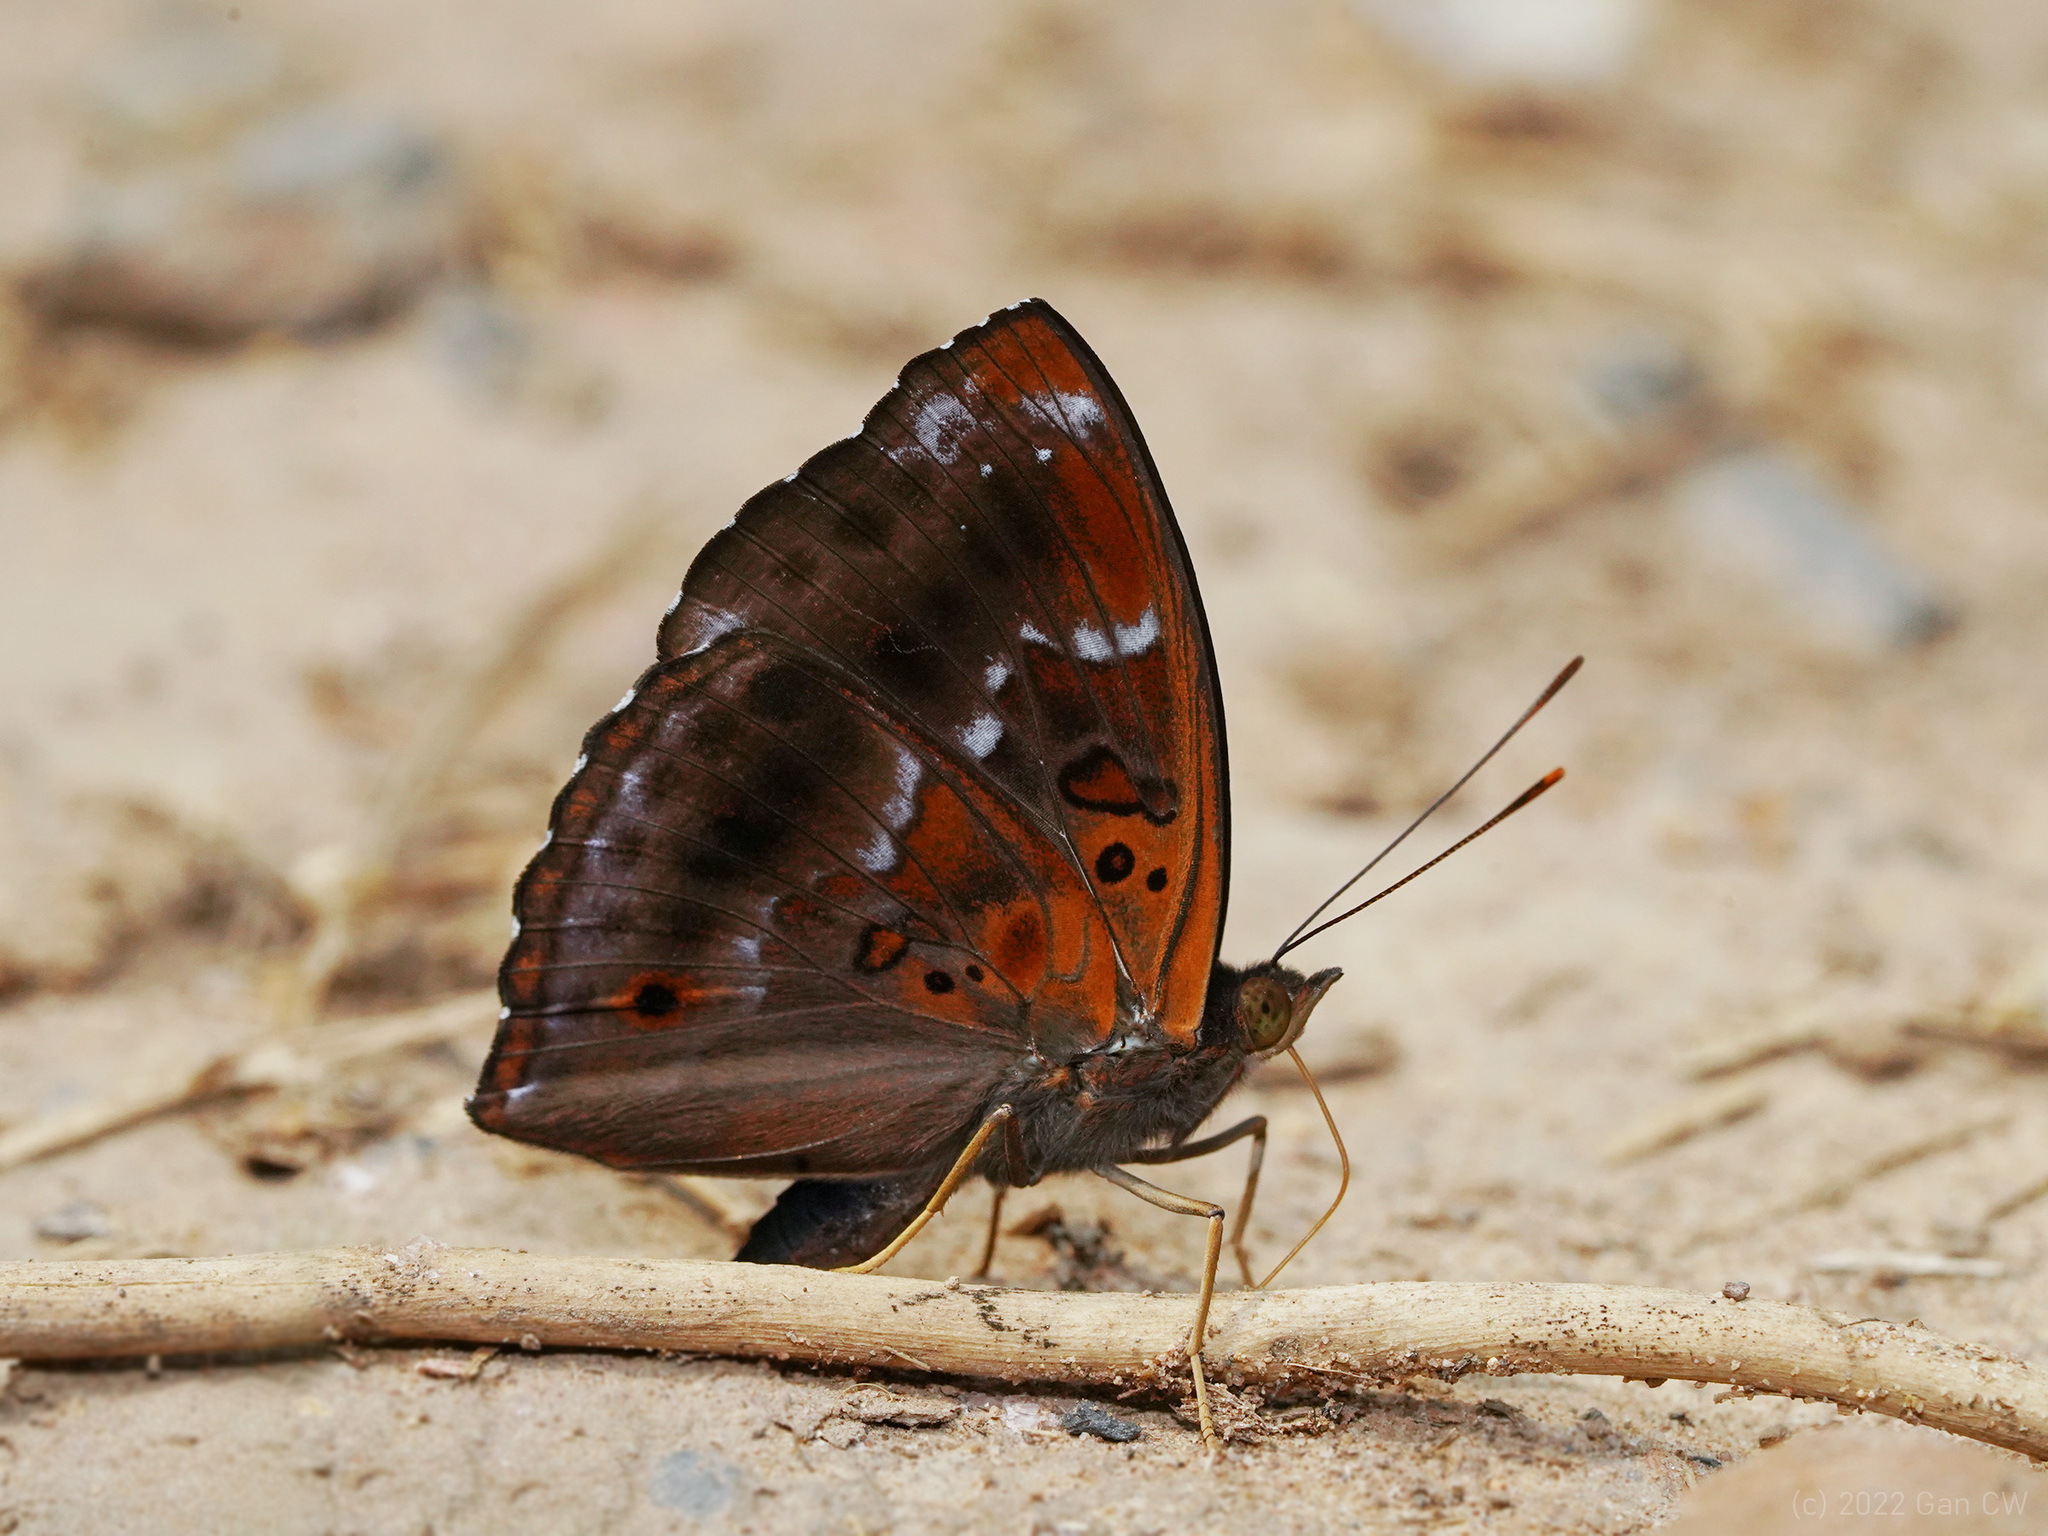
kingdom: Animalia
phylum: Arthropoda
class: Insecta
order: Lepidoptera
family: Nymphalidae
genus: Apatura
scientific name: Apatura parisatis
